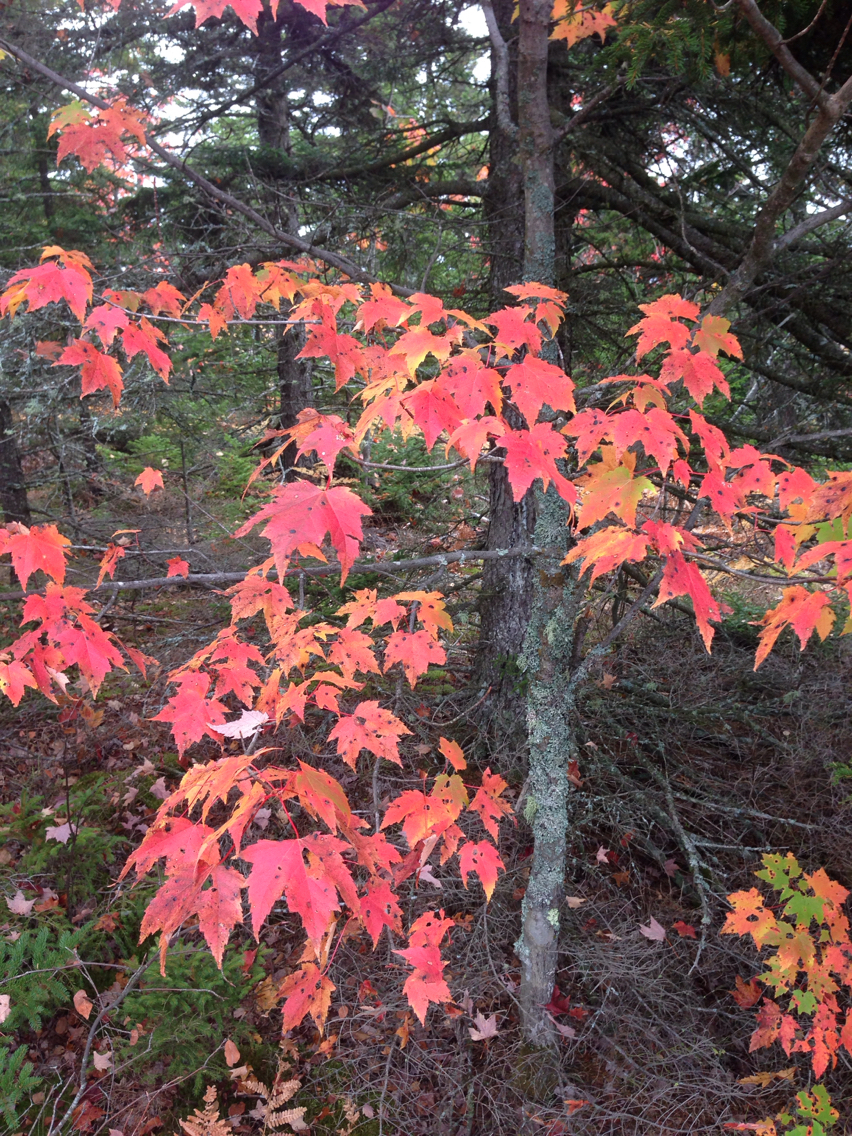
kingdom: Plantae
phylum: Tracheophyta
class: Magnoliopsida
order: Sapindales
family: Sapindaceae
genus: Acer
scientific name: Acer rubrum
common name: Red maple
